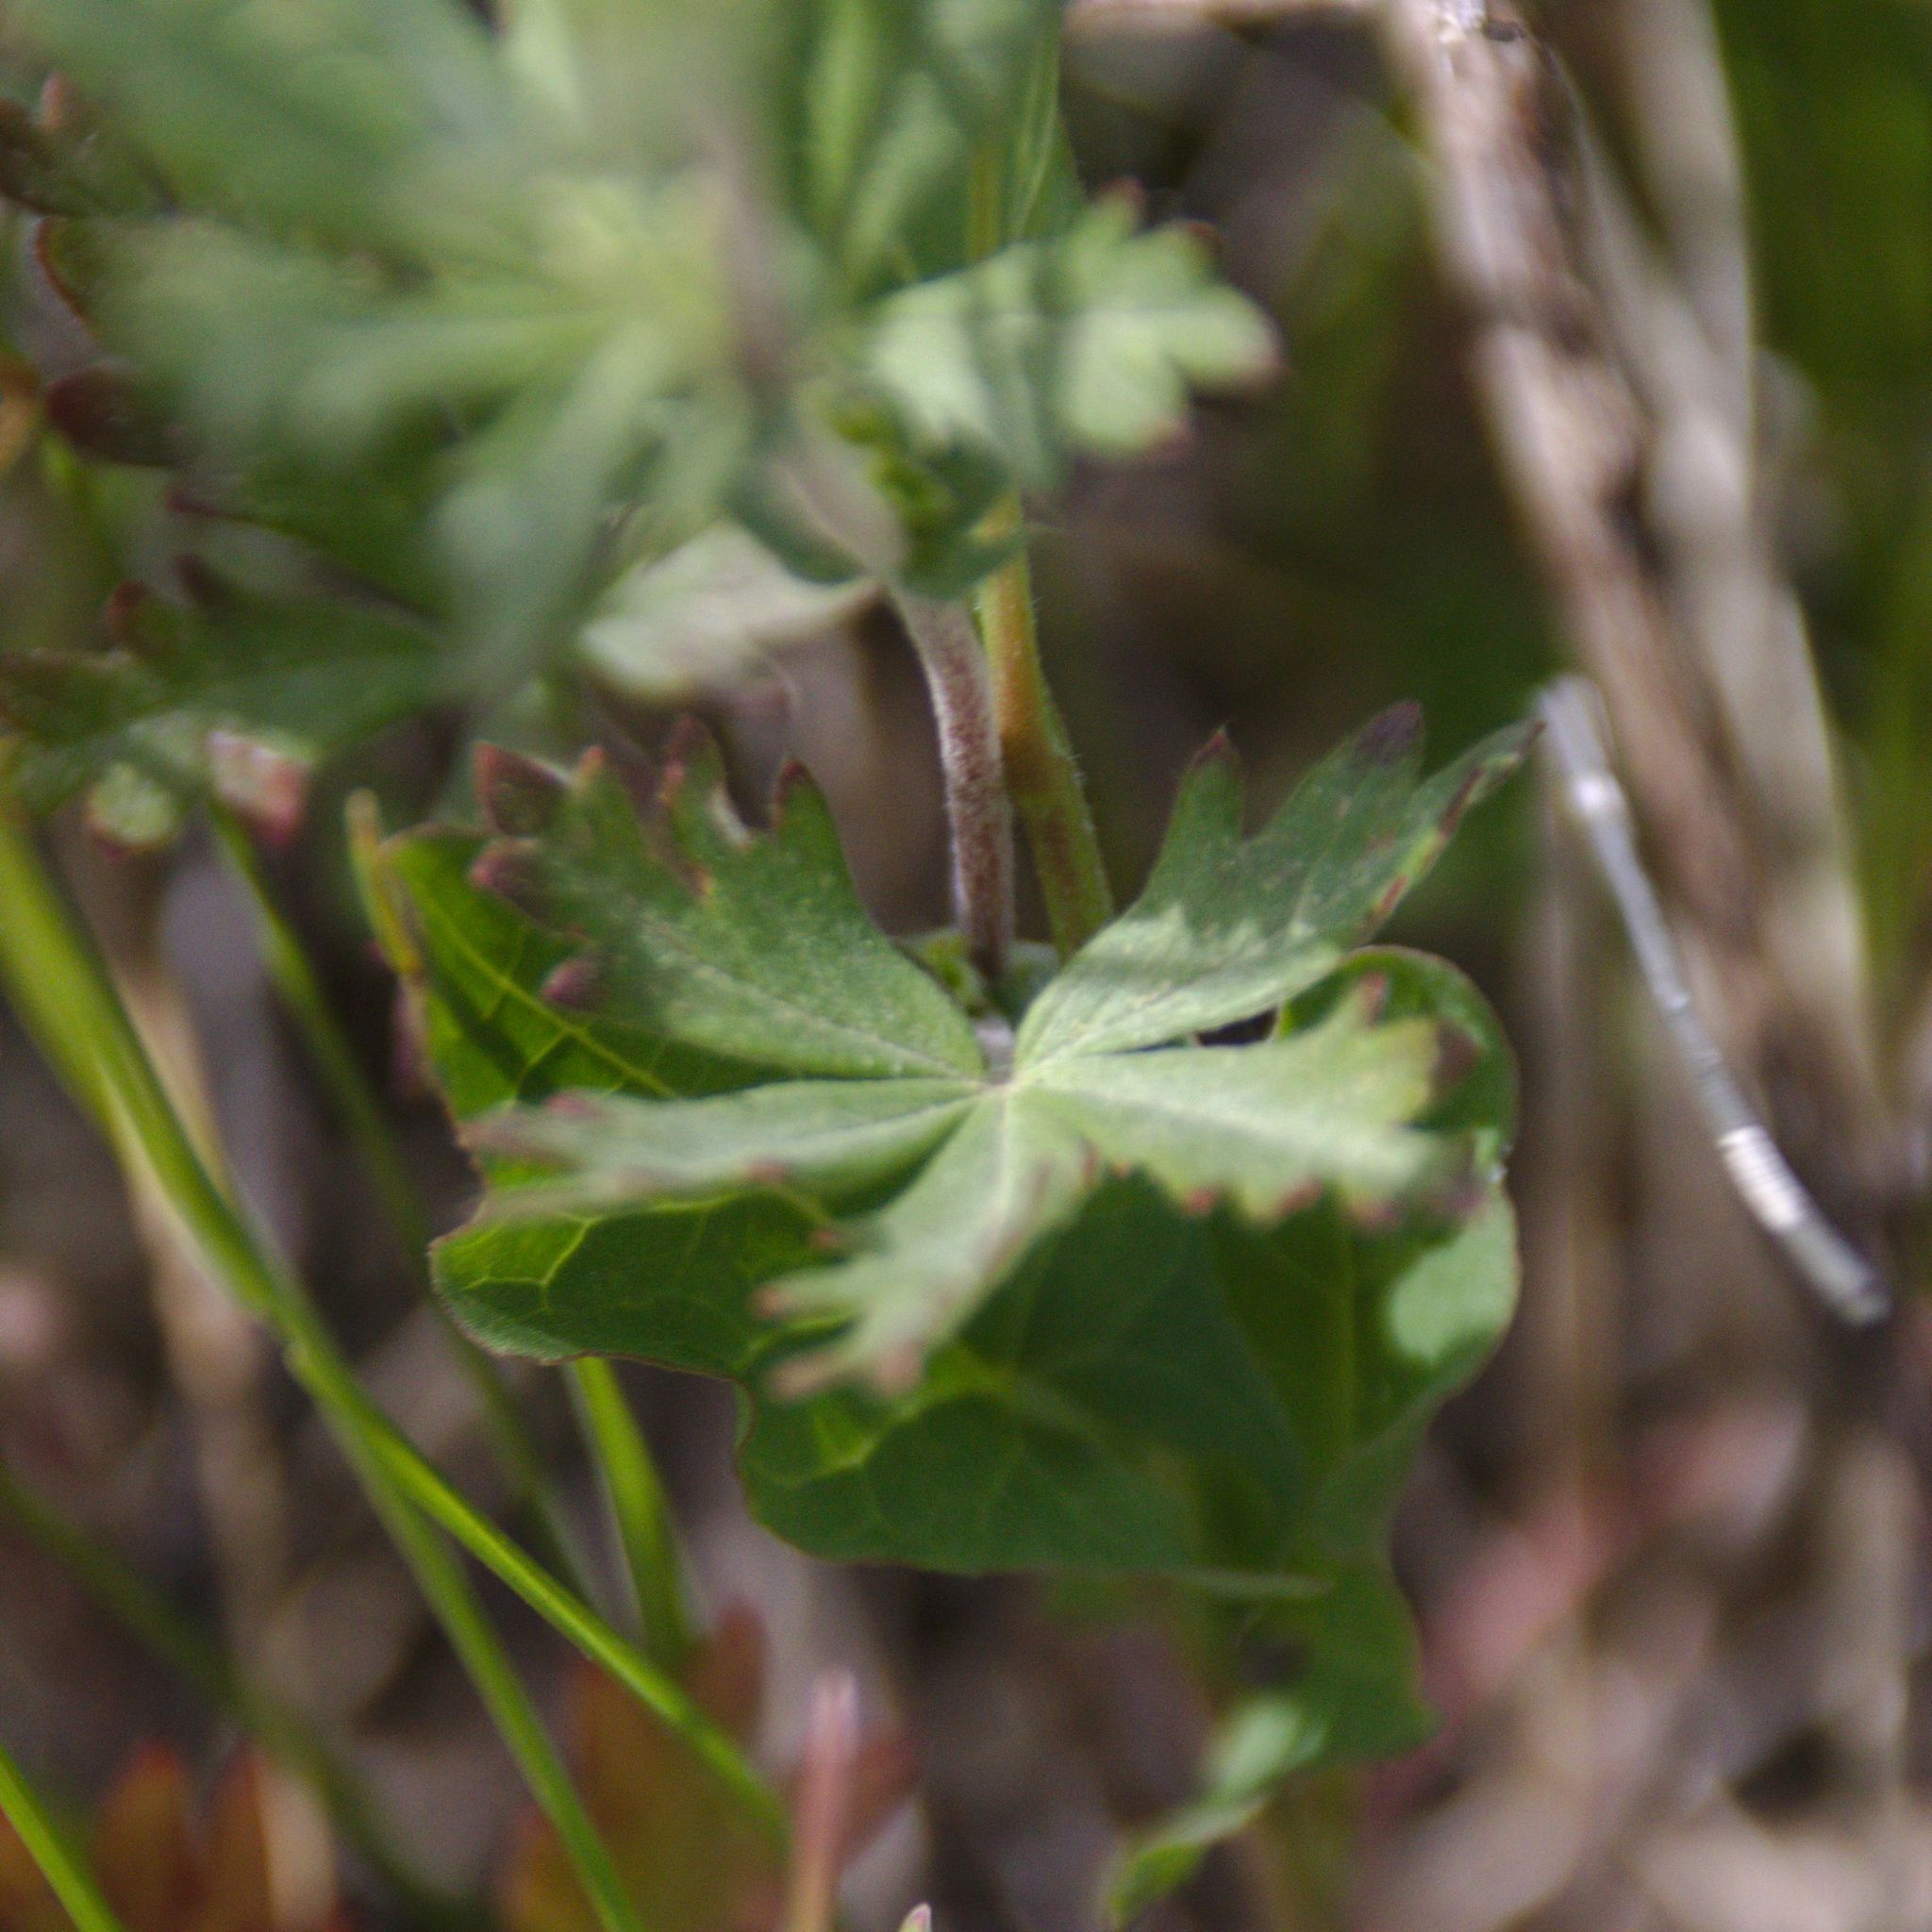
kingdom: Plantae
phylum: Tracheophyta
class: Magnoliopsida
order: Rosales
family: Rosaceae
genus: Potentilla
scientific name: Potentilla argentea
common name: Hoary cinquefoil
